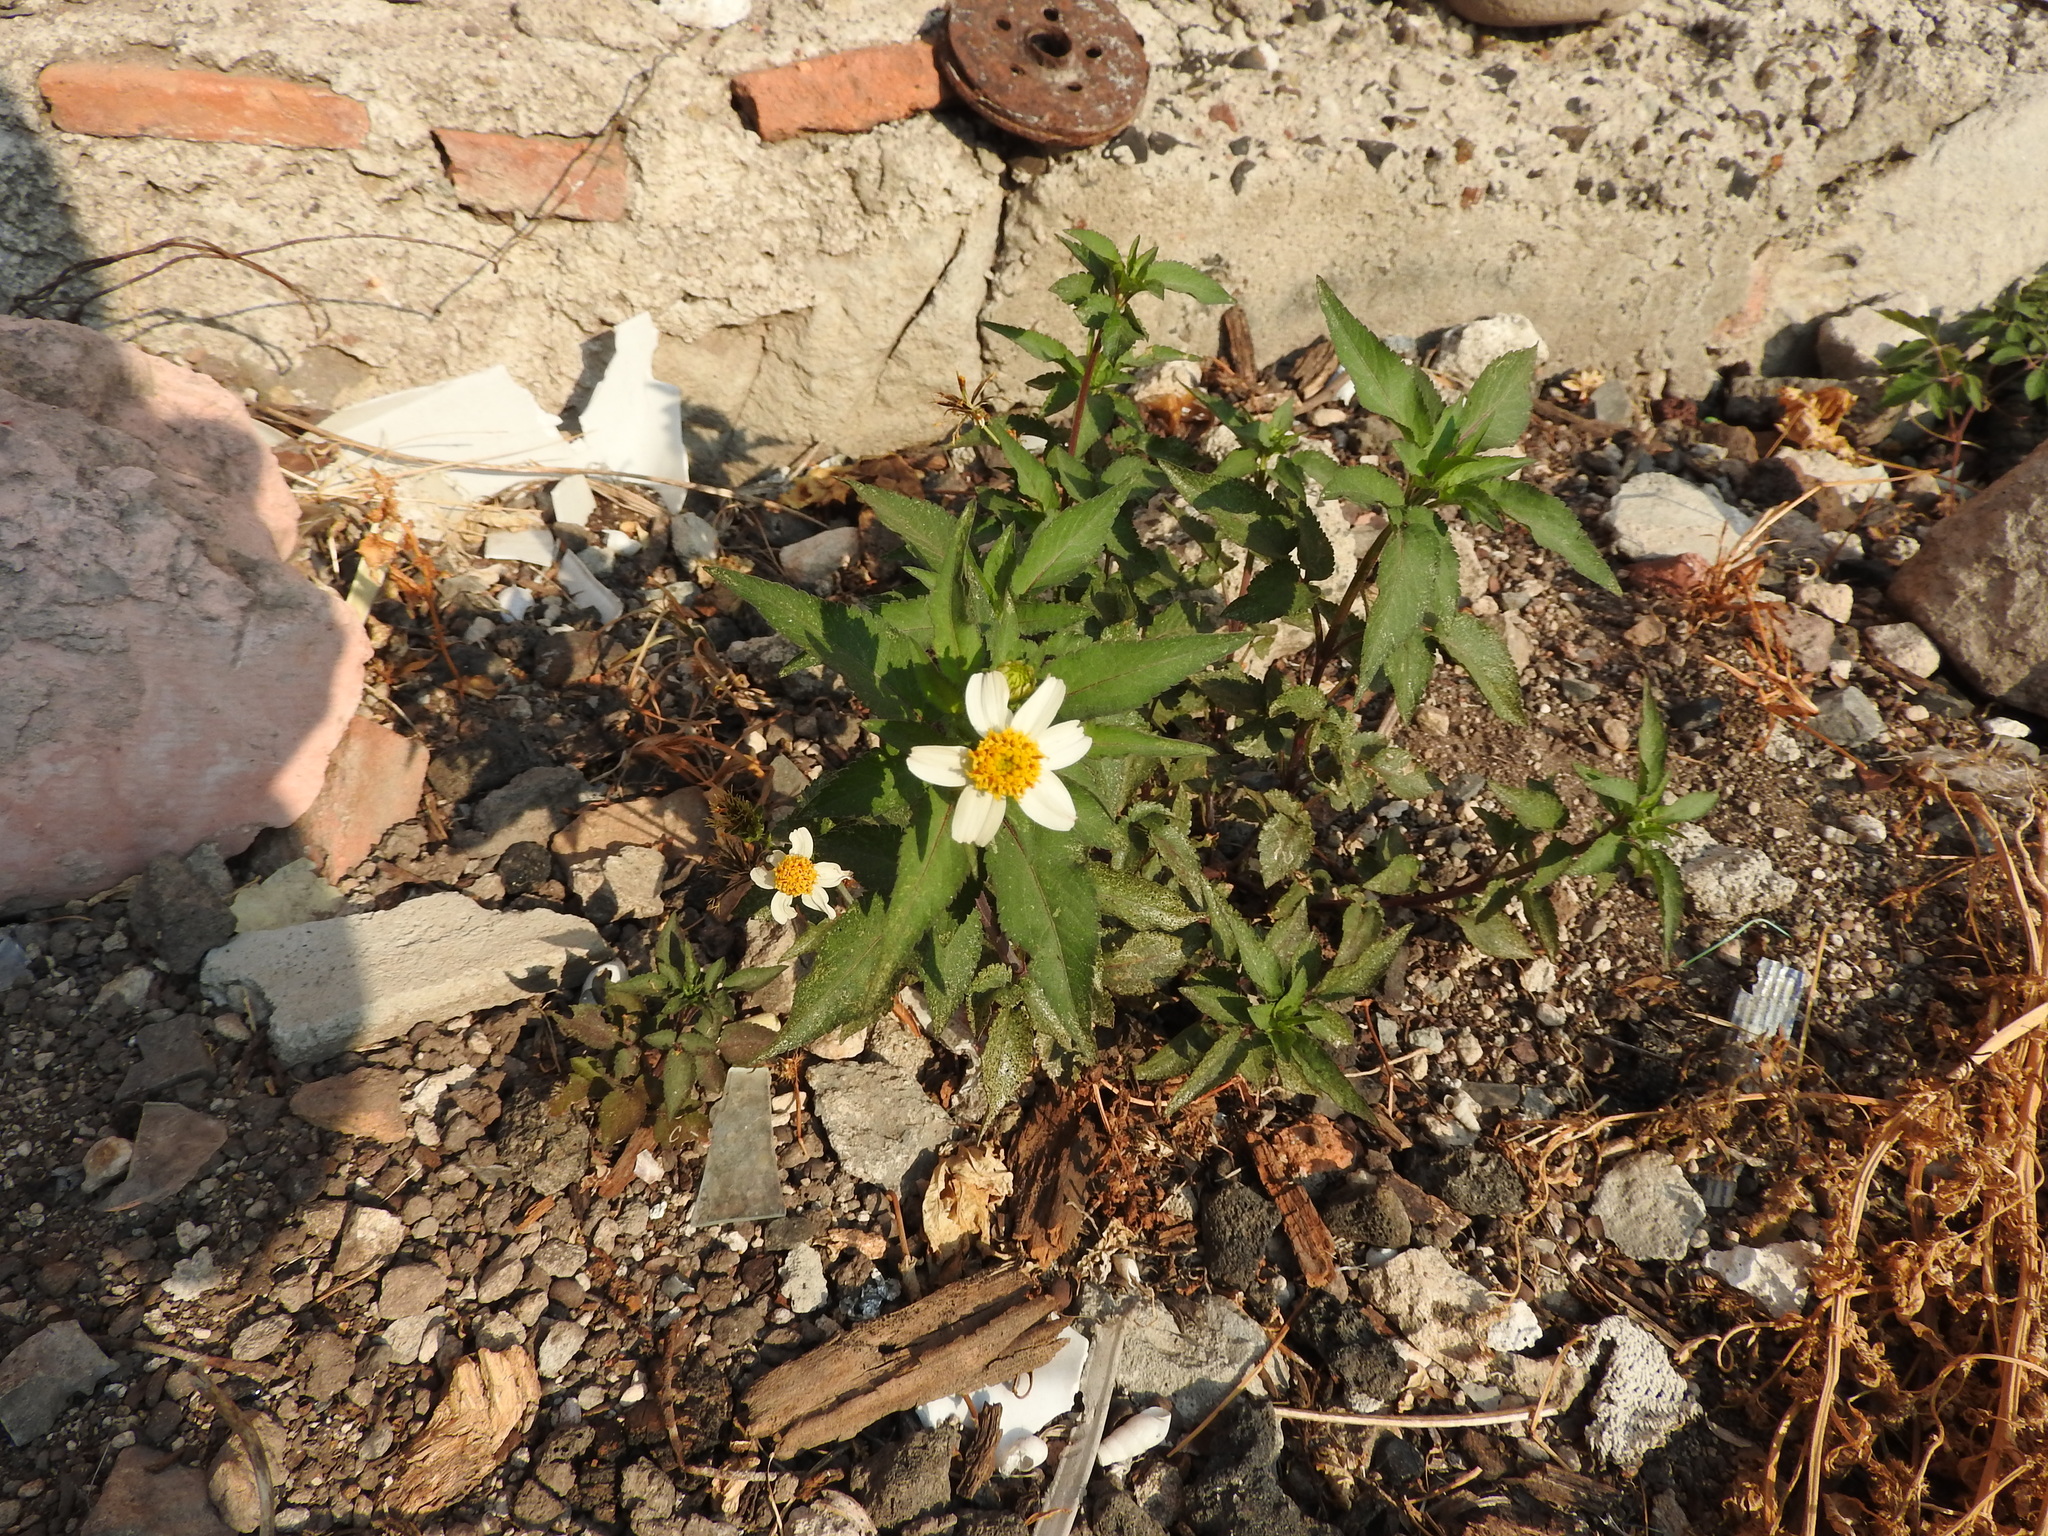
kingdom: Plantae
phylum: Tracheophyta
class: Magnoliopsida
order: Asterales
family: Asteraceae
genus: Bidens
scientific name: Bidens alba
